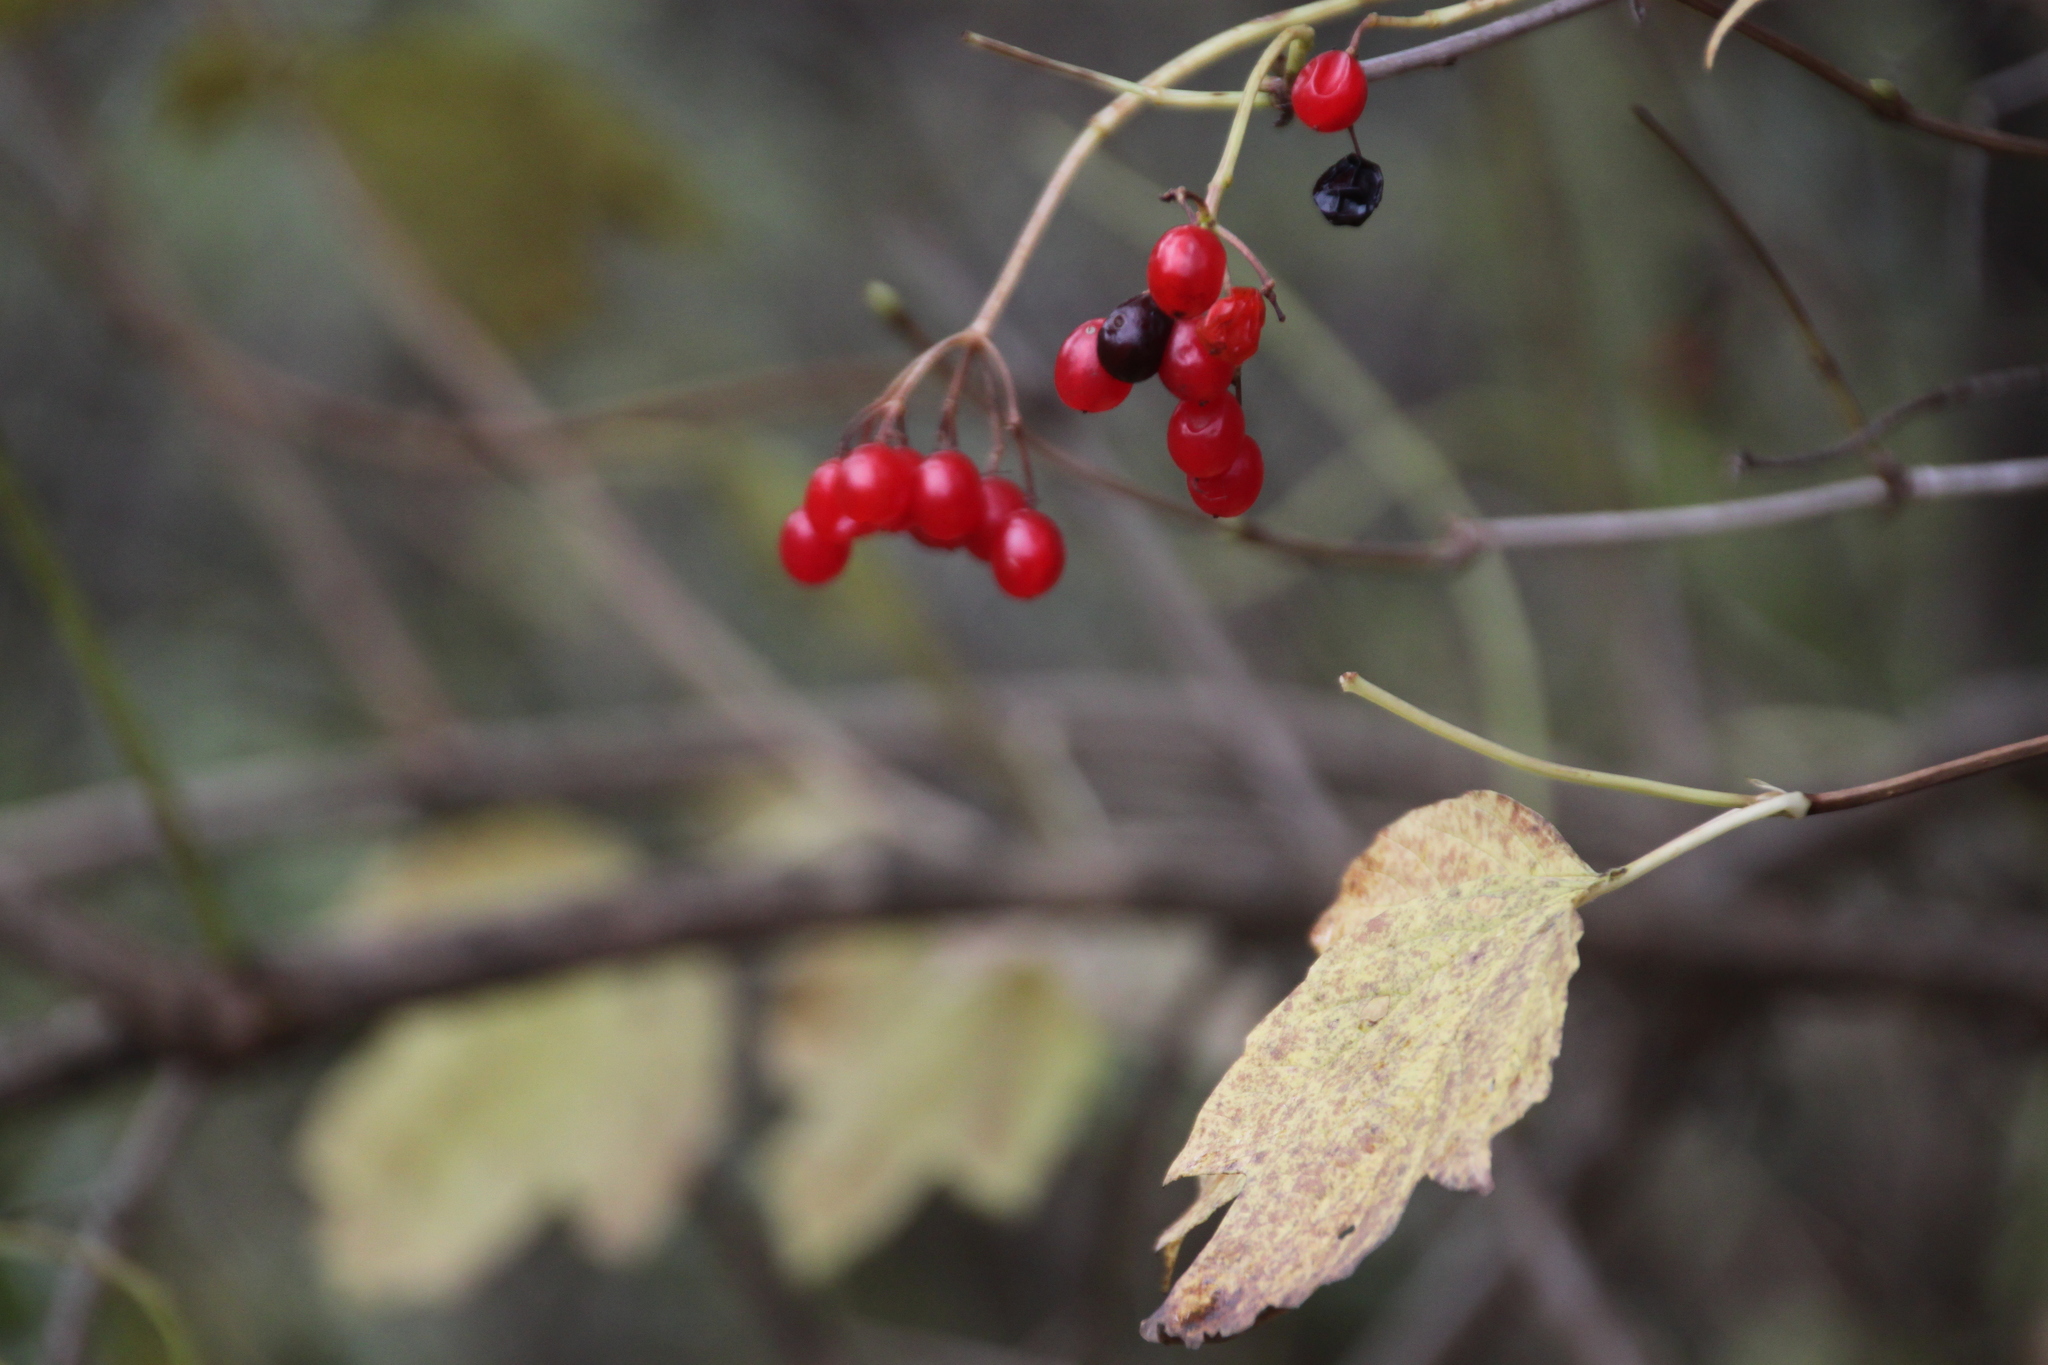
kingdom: Plantae
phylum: Tracheophyta
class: Magnoliopsida
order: Dipsacales
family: Viburnaceae
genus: Viburnum
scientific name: Viburnum opulus
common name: Guelder-rose
